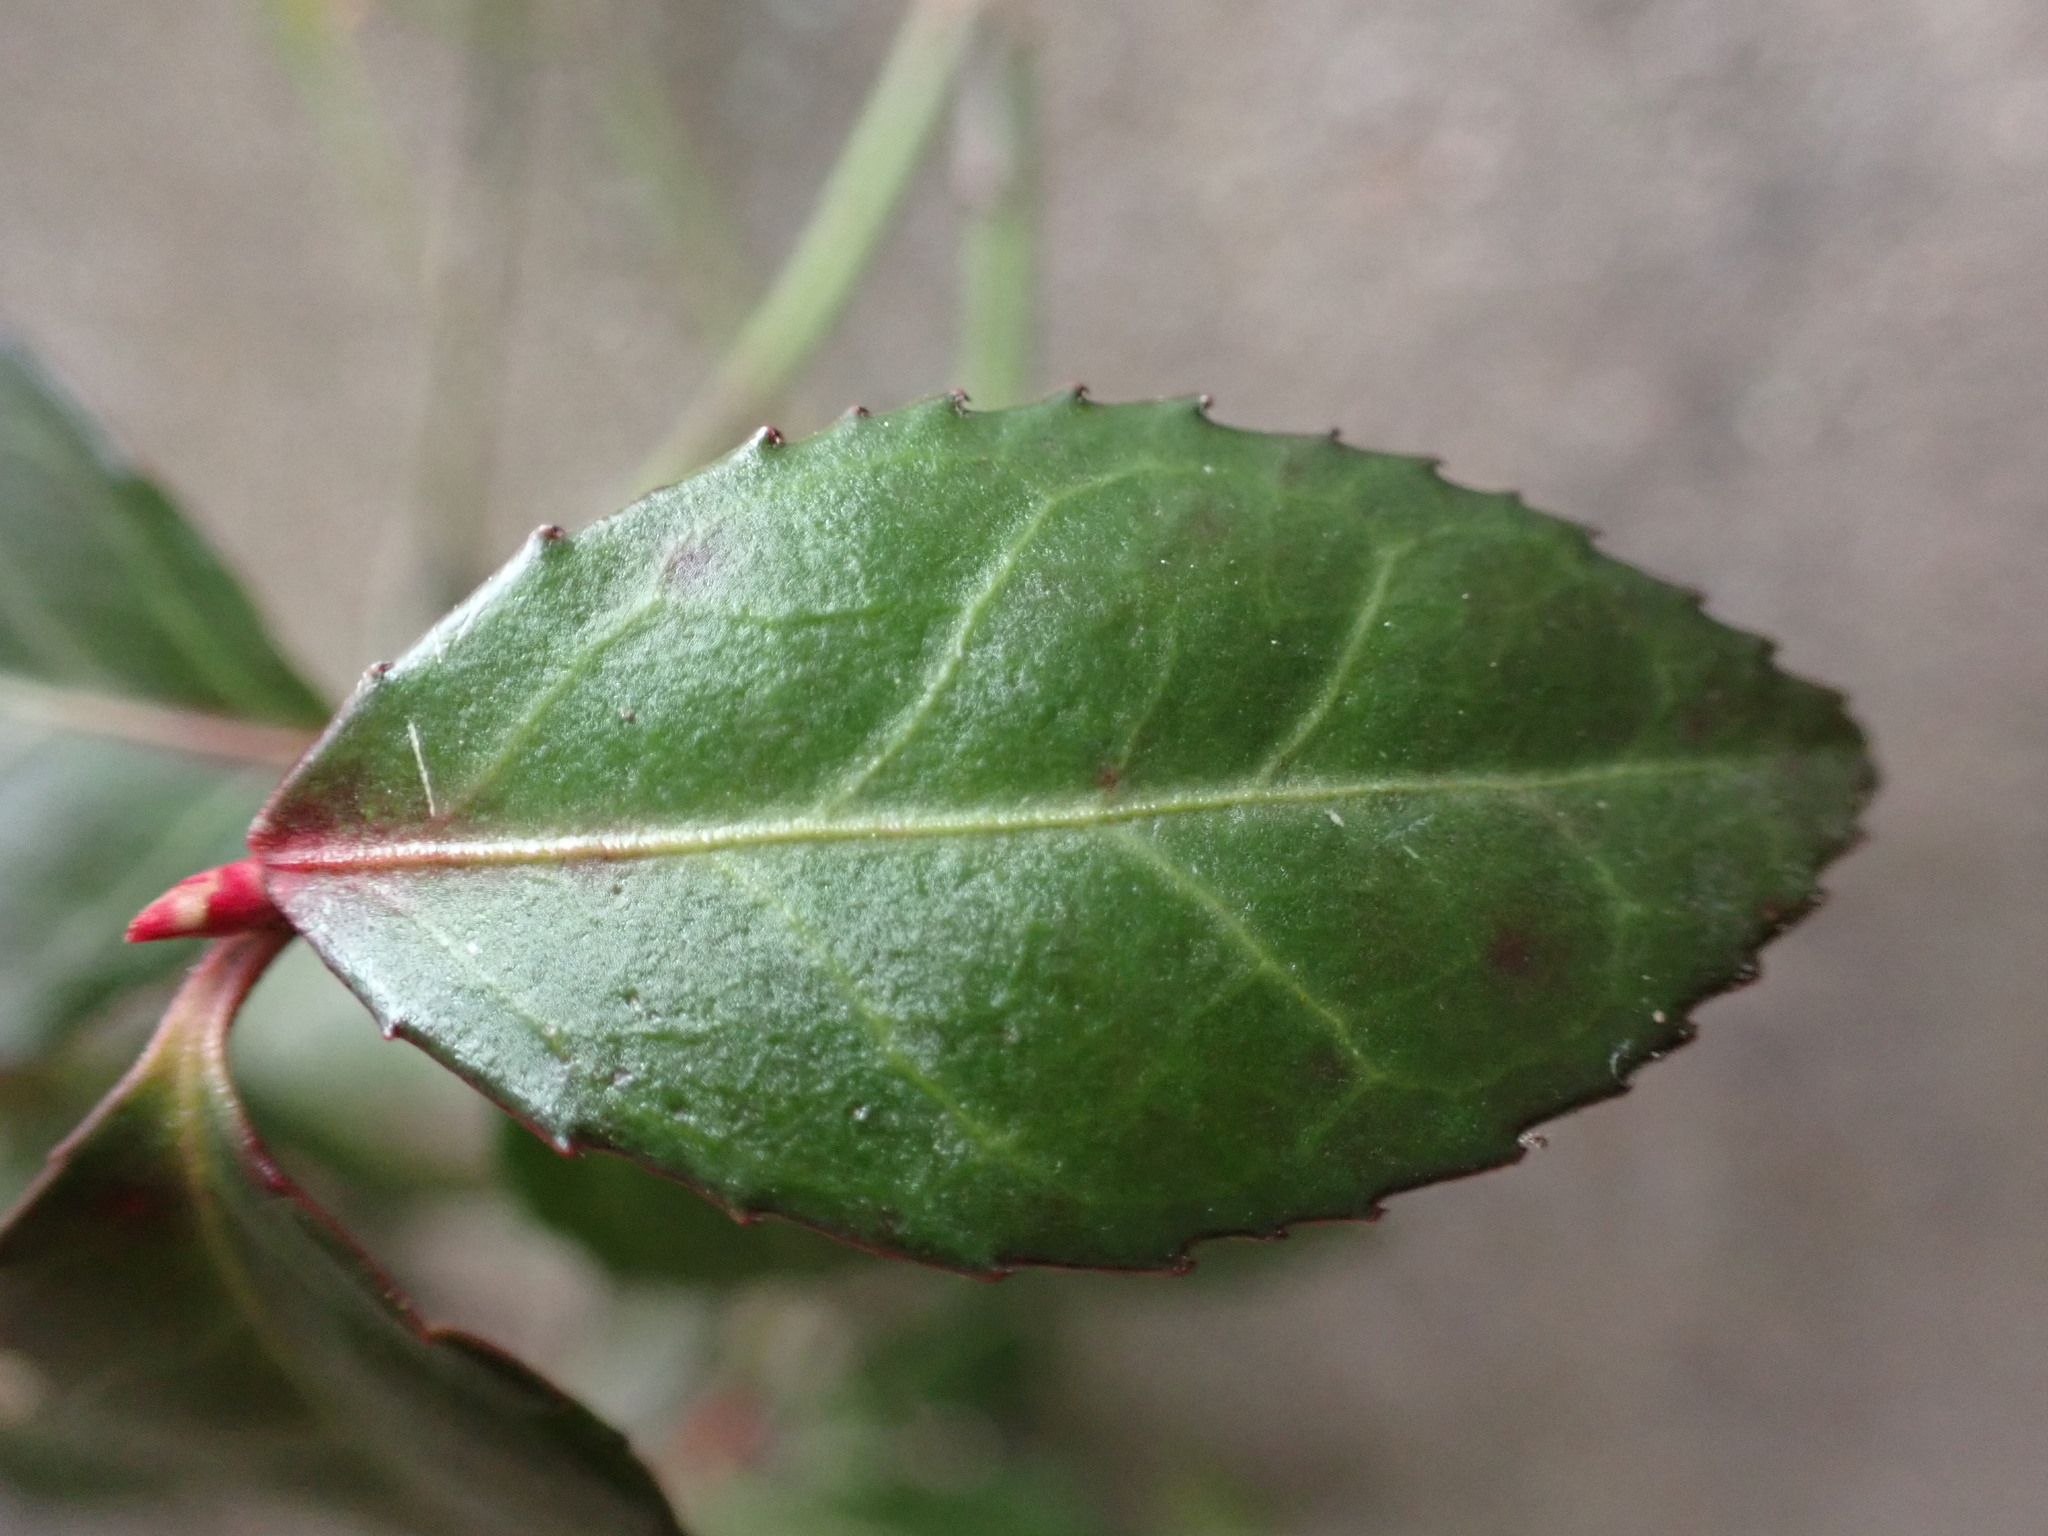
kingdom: Plantae
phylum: Tracheophyta
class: Magnoliopsida
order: Celastrales
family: Celastraceae
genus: Euonymus
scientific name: Euonymus fortunei
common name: Climbing euonymus
